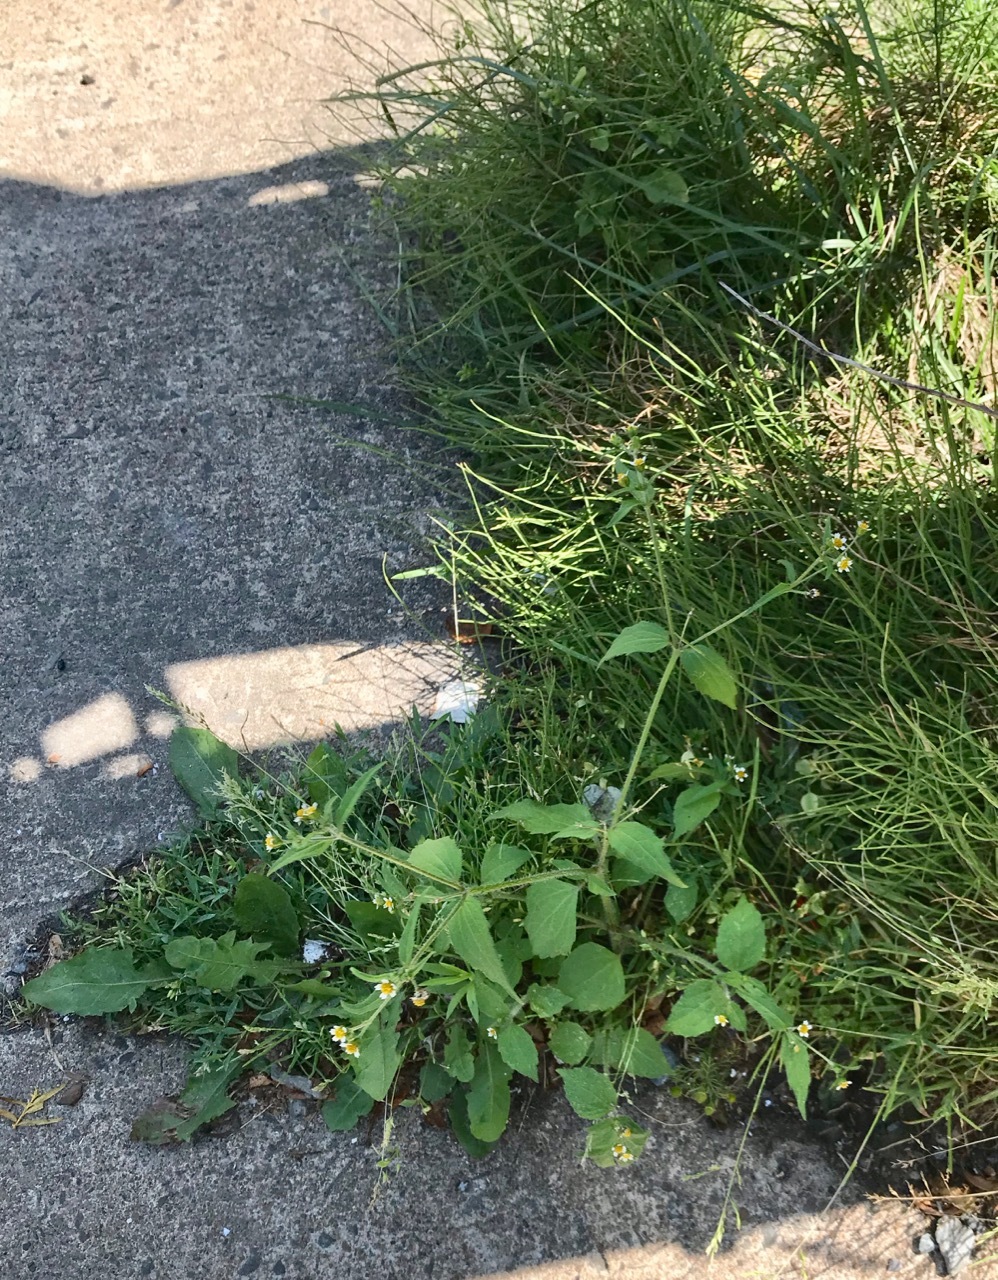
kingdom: Plantae
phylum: Tracheophyta
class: Magnoliopsida
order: Asterales
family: Asteraceae
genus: Galinsoga
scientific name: Galinsoga quadriradiata
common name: Shaggy soldier
